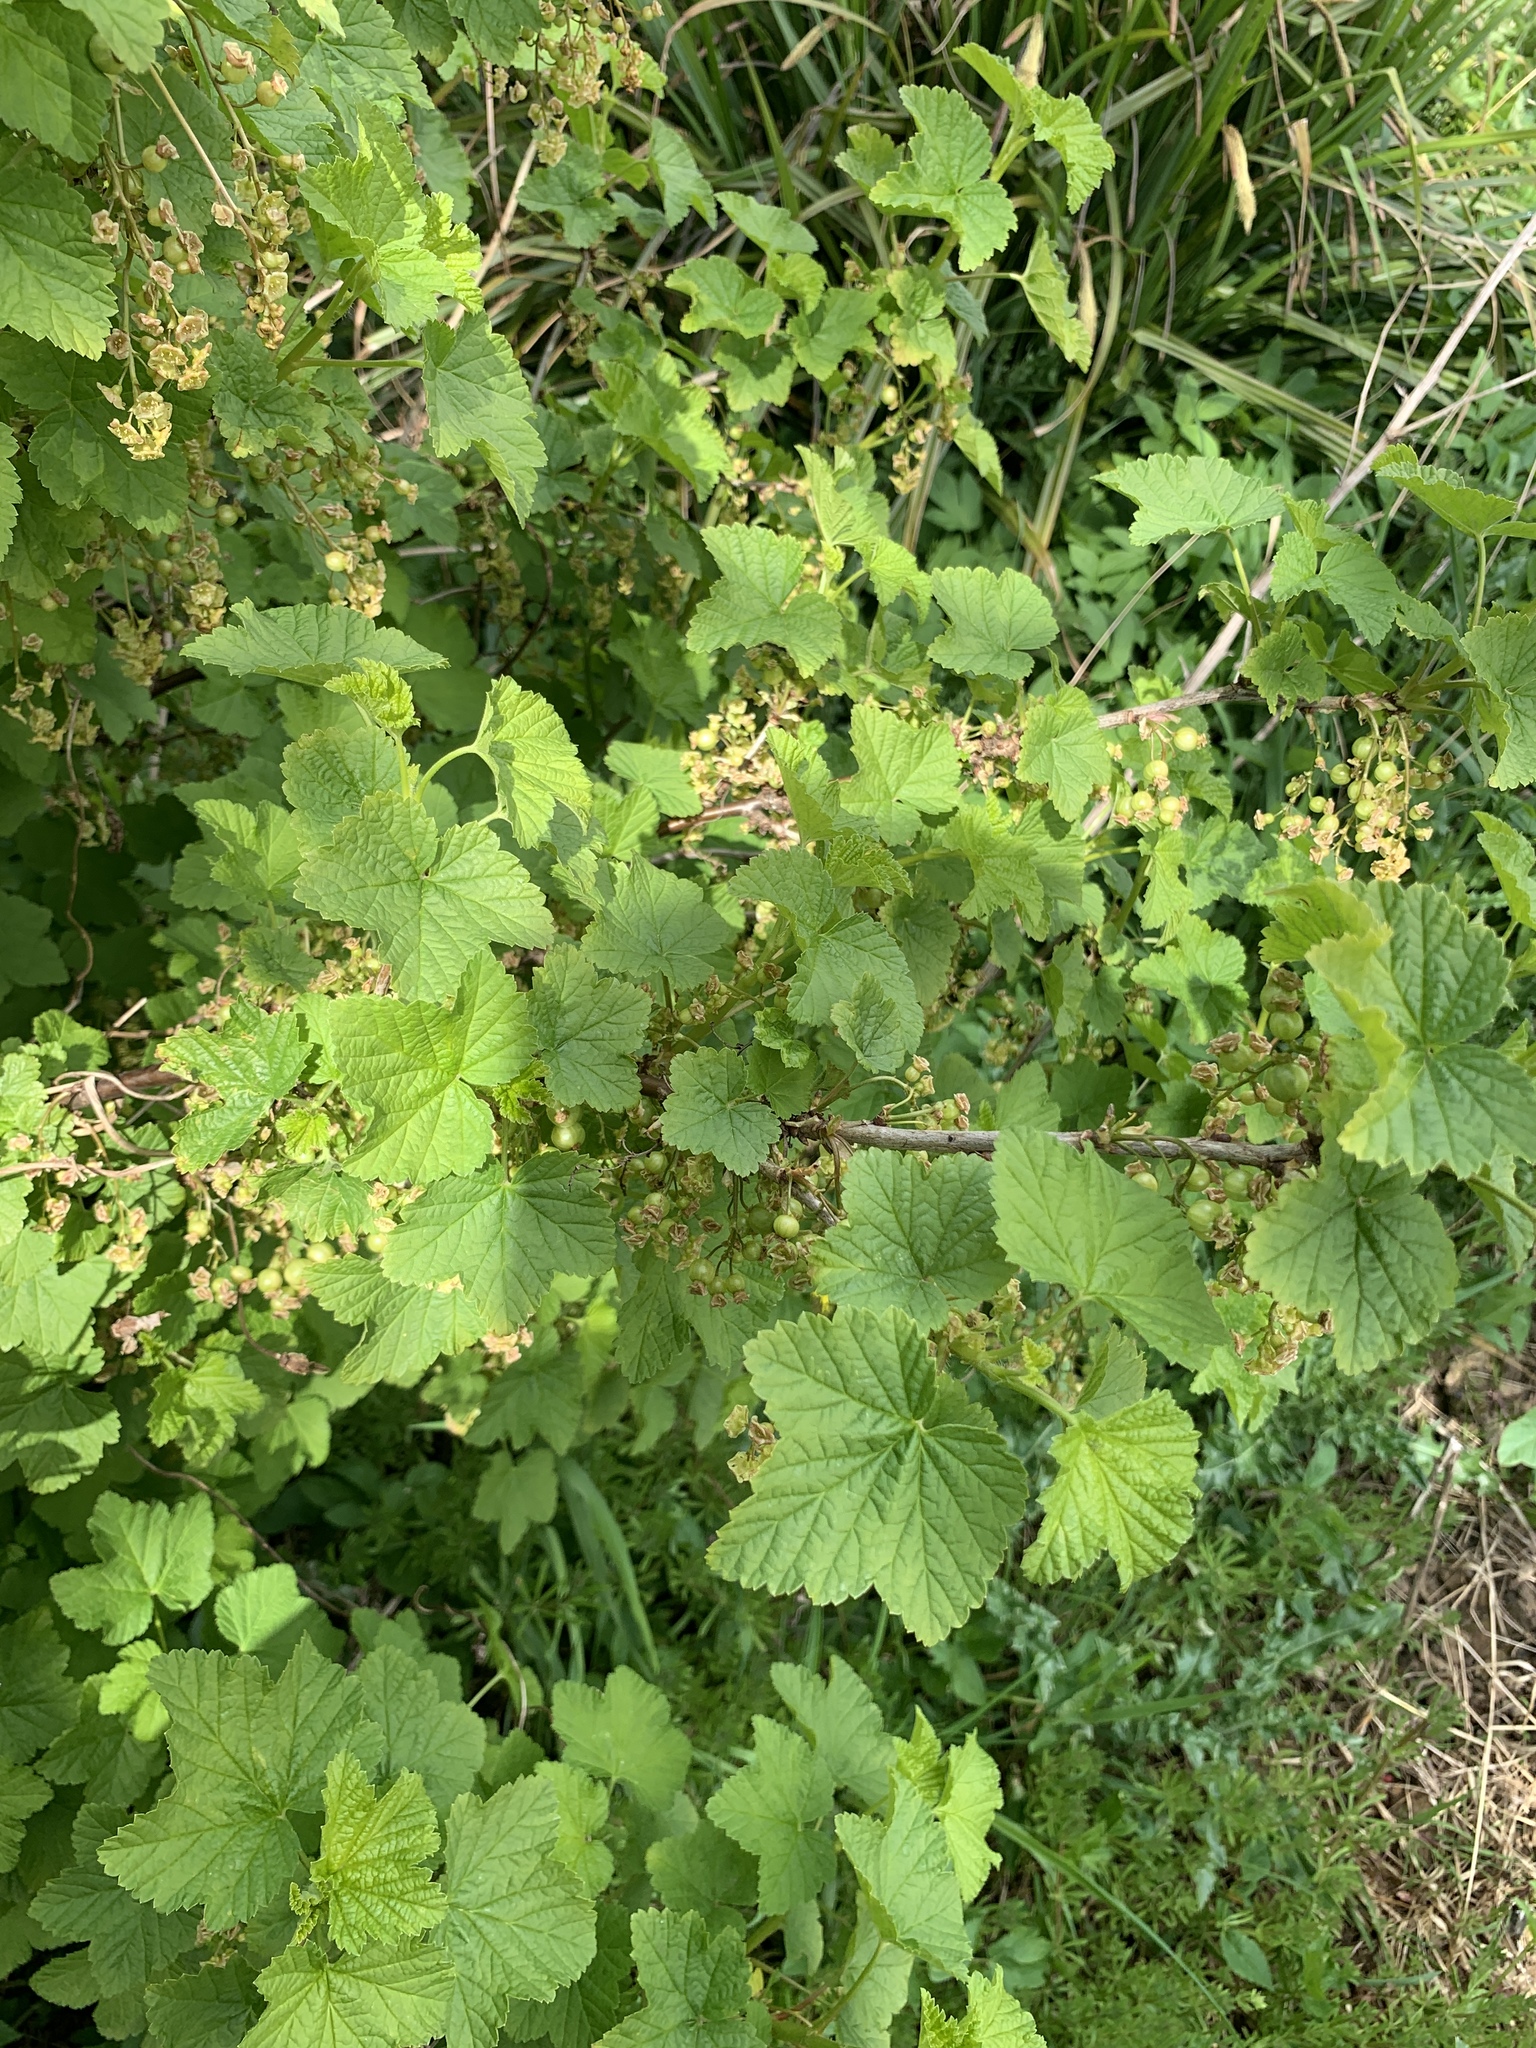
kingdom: Plantae
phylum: Tracheophyta
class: Magnoliopsida
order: Saxifragales
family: Grossulariaceae
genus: Ribes
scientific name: Ribes rubrum
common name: Red currant
